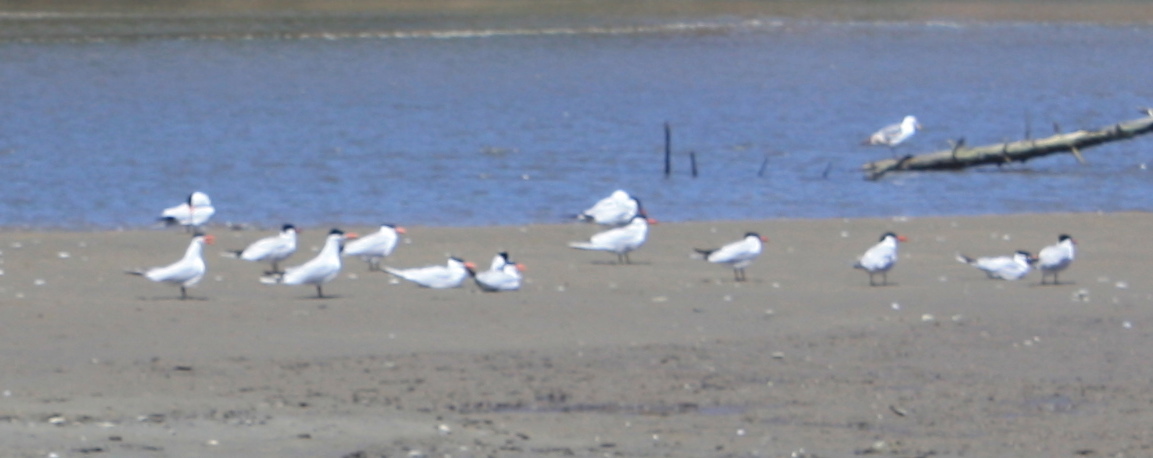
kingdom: Animalia
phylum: Chordata
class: Aves
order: Charadriiformes
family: Laridae
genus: Hydroprogne
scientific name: Hydroprogne caspia
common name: Caspian tern
